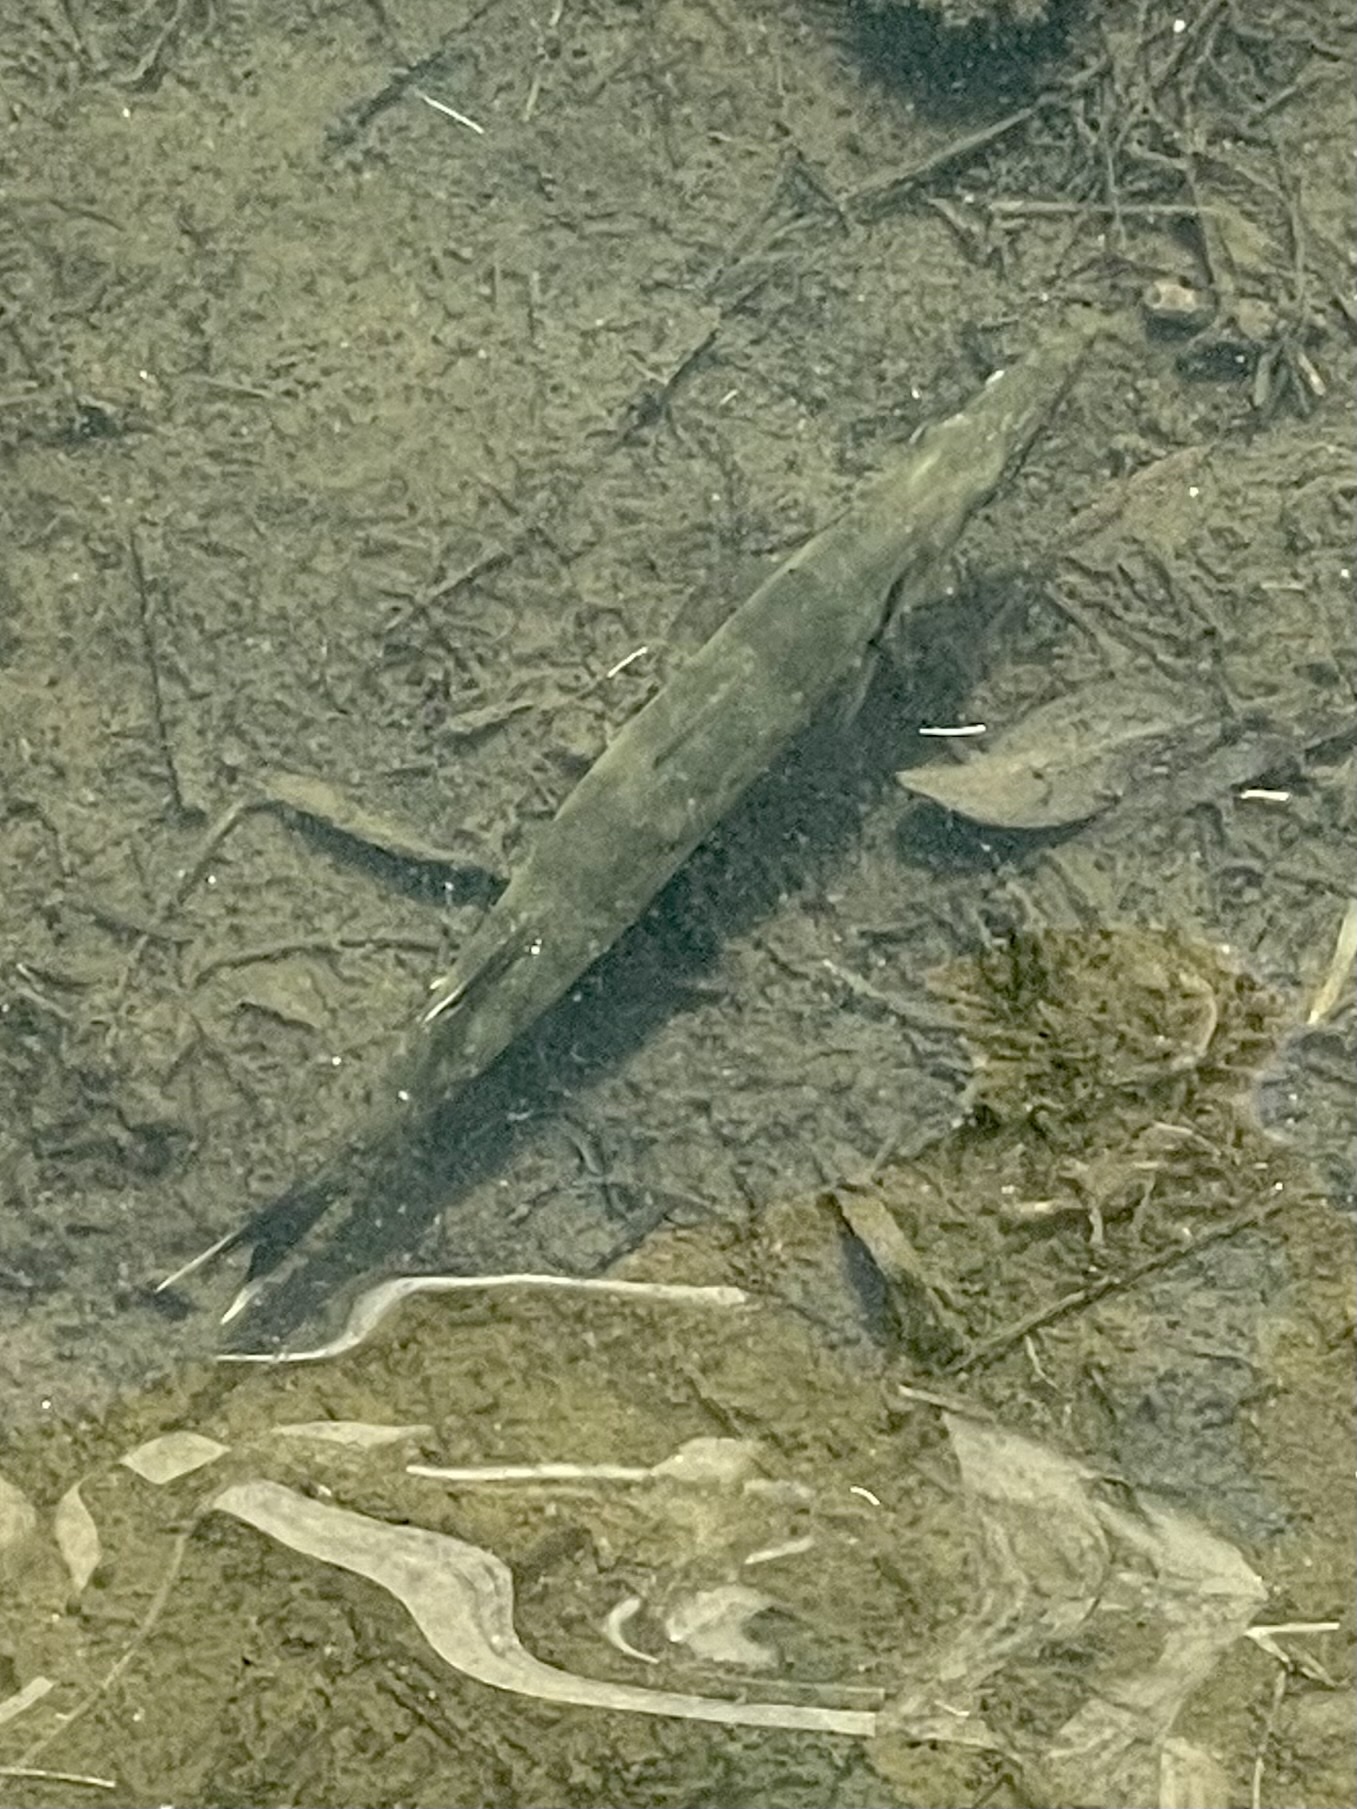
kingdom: Animalia
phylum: Chordata
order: Perciformes
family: Sphyraenidae
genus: Sphyraena
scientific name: Sphyraena barracuda
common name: Great barracuda
